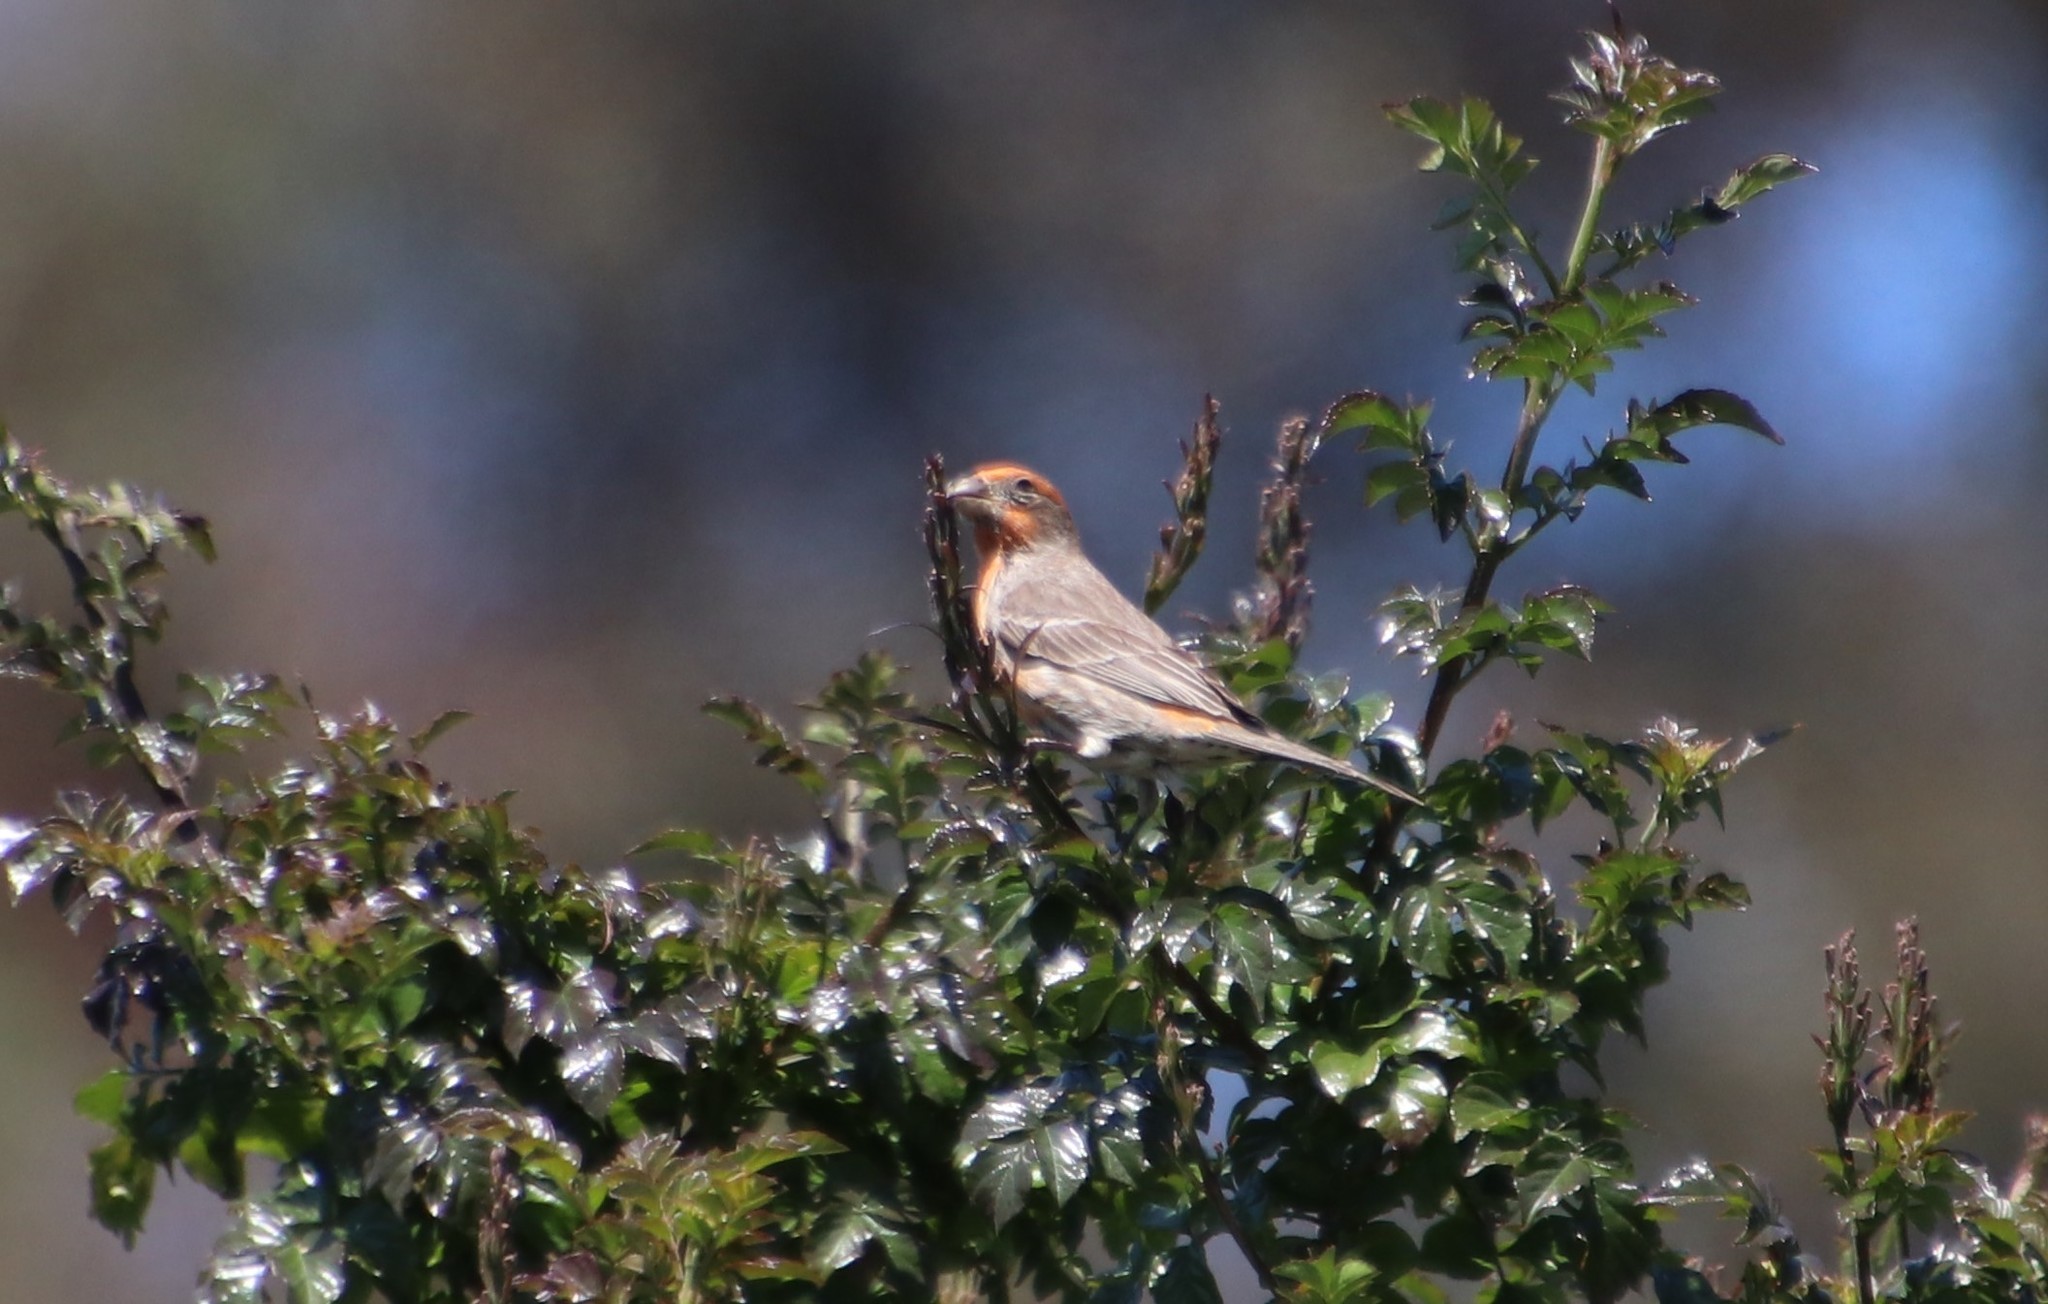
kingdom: Animalia
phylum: Chordata
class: Aves
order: Passeriformes
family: Fringillidae
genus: Haemorhous
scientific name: Haemorhous mexicanus
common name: House finch
